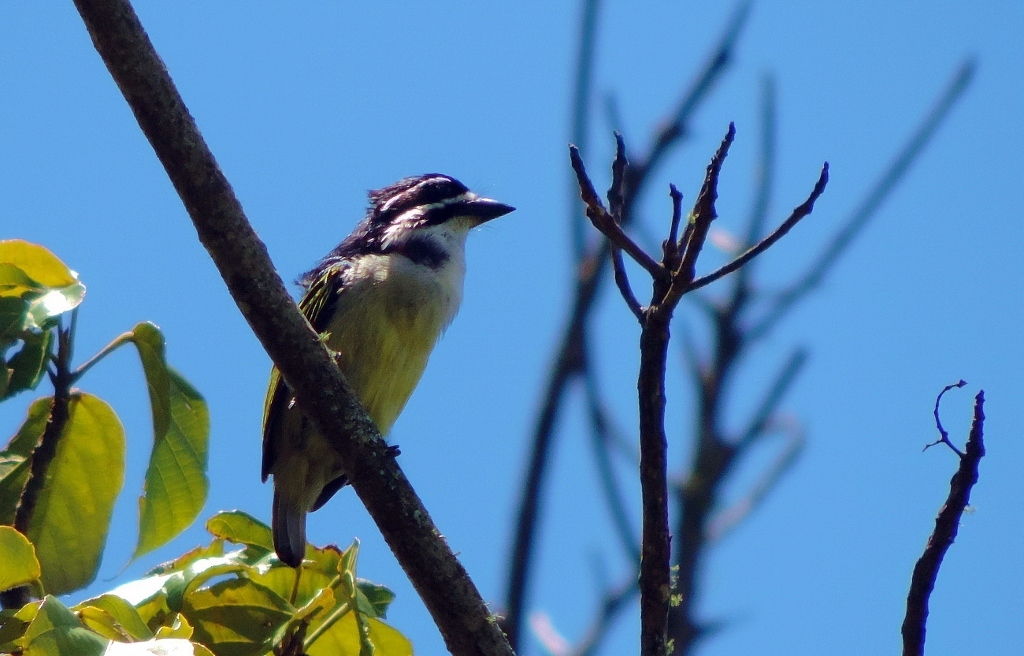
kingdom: Animalia
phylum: Chordata
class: Aves
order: Piciformes
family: Lybiidae
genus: Pogoniulus
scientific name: Pogoniulus bilineatus
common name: Yellow-rumped tinkerbird
